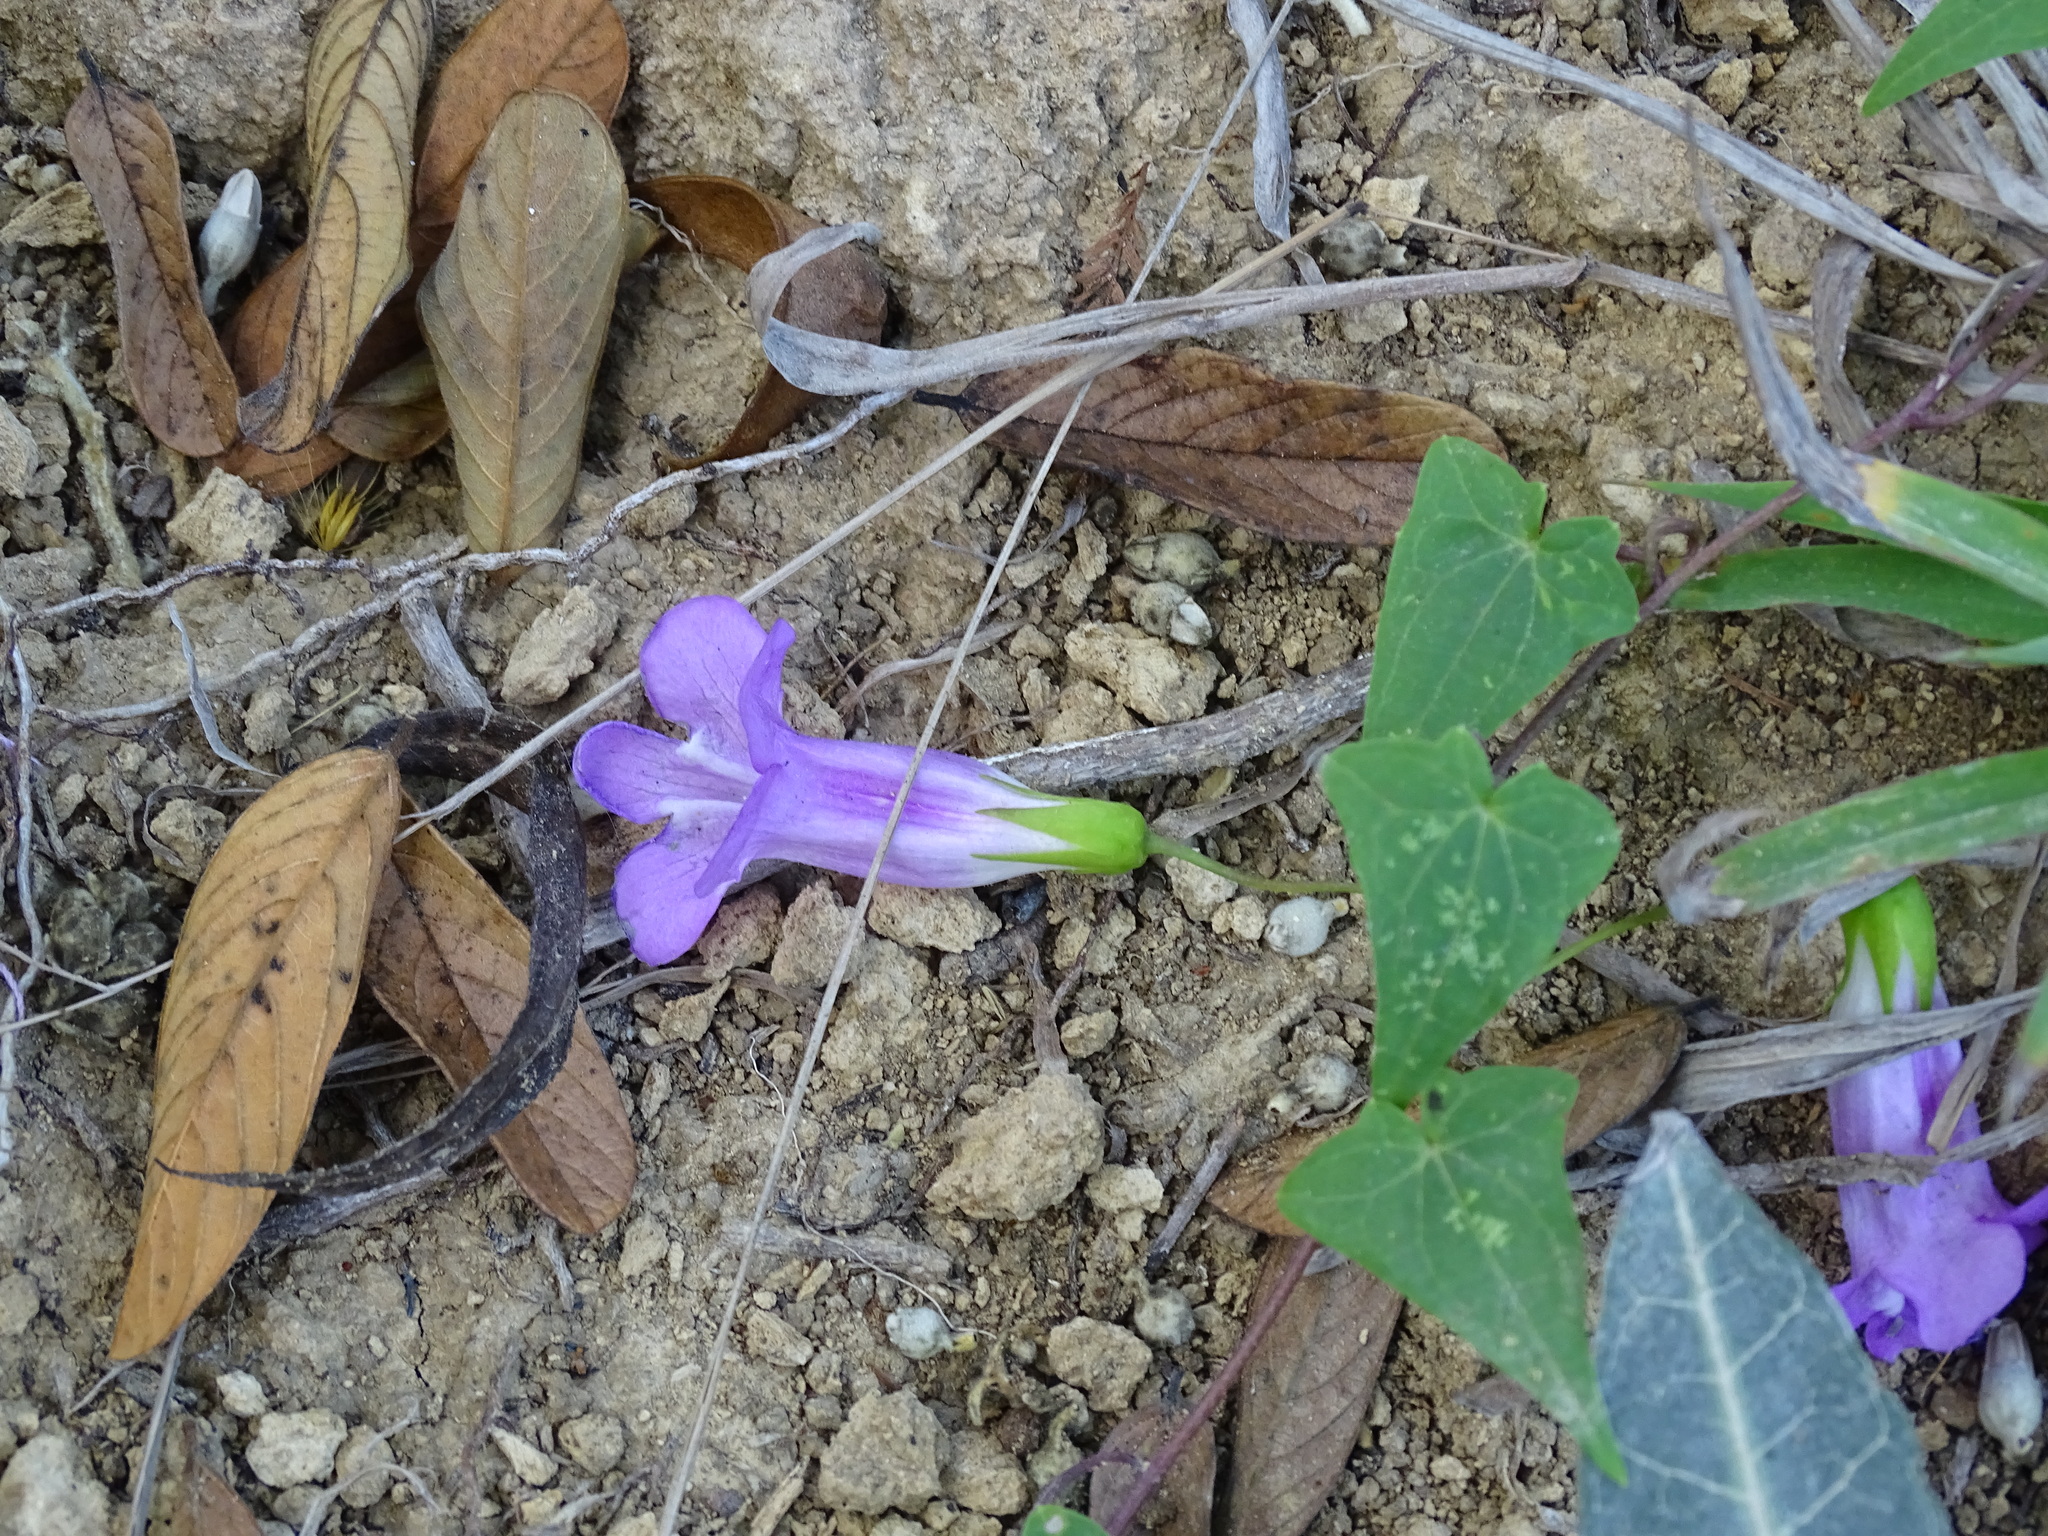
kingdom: Plantae
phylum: Tracheophyta
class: Magnoliopsida
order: Lamiales
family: Plantaginaceae
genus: Maurandya
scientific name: Maurandya scandens
